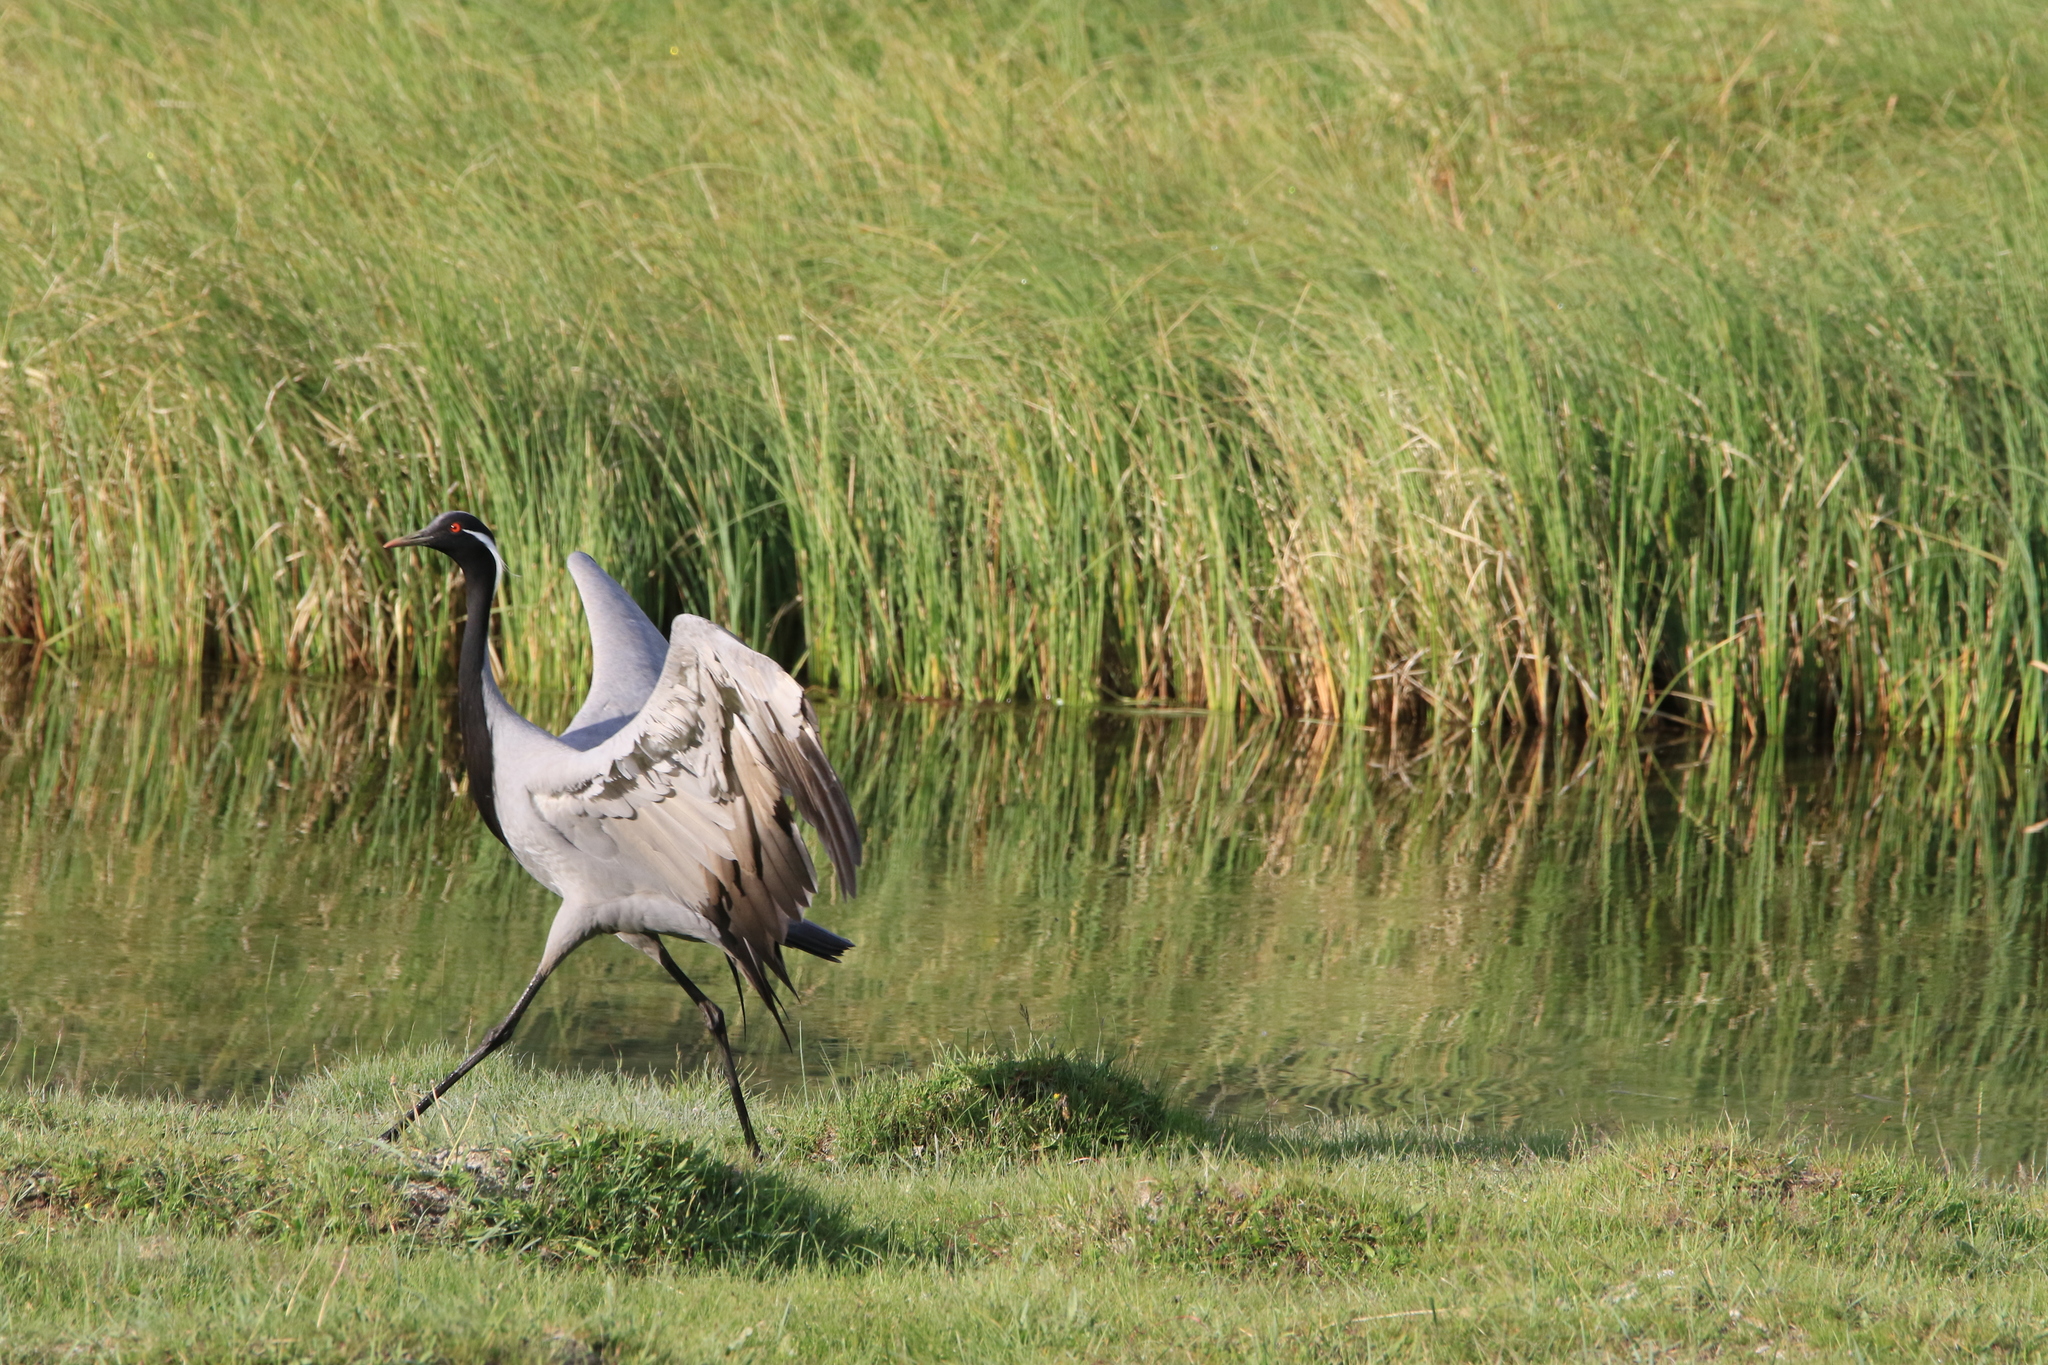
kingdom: Animalia
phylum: Chordata
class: Aves
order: Gruiformes
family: Gruidae
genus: Anthropoides
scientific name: Anthropoides virgo
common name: Demoiselle crane
